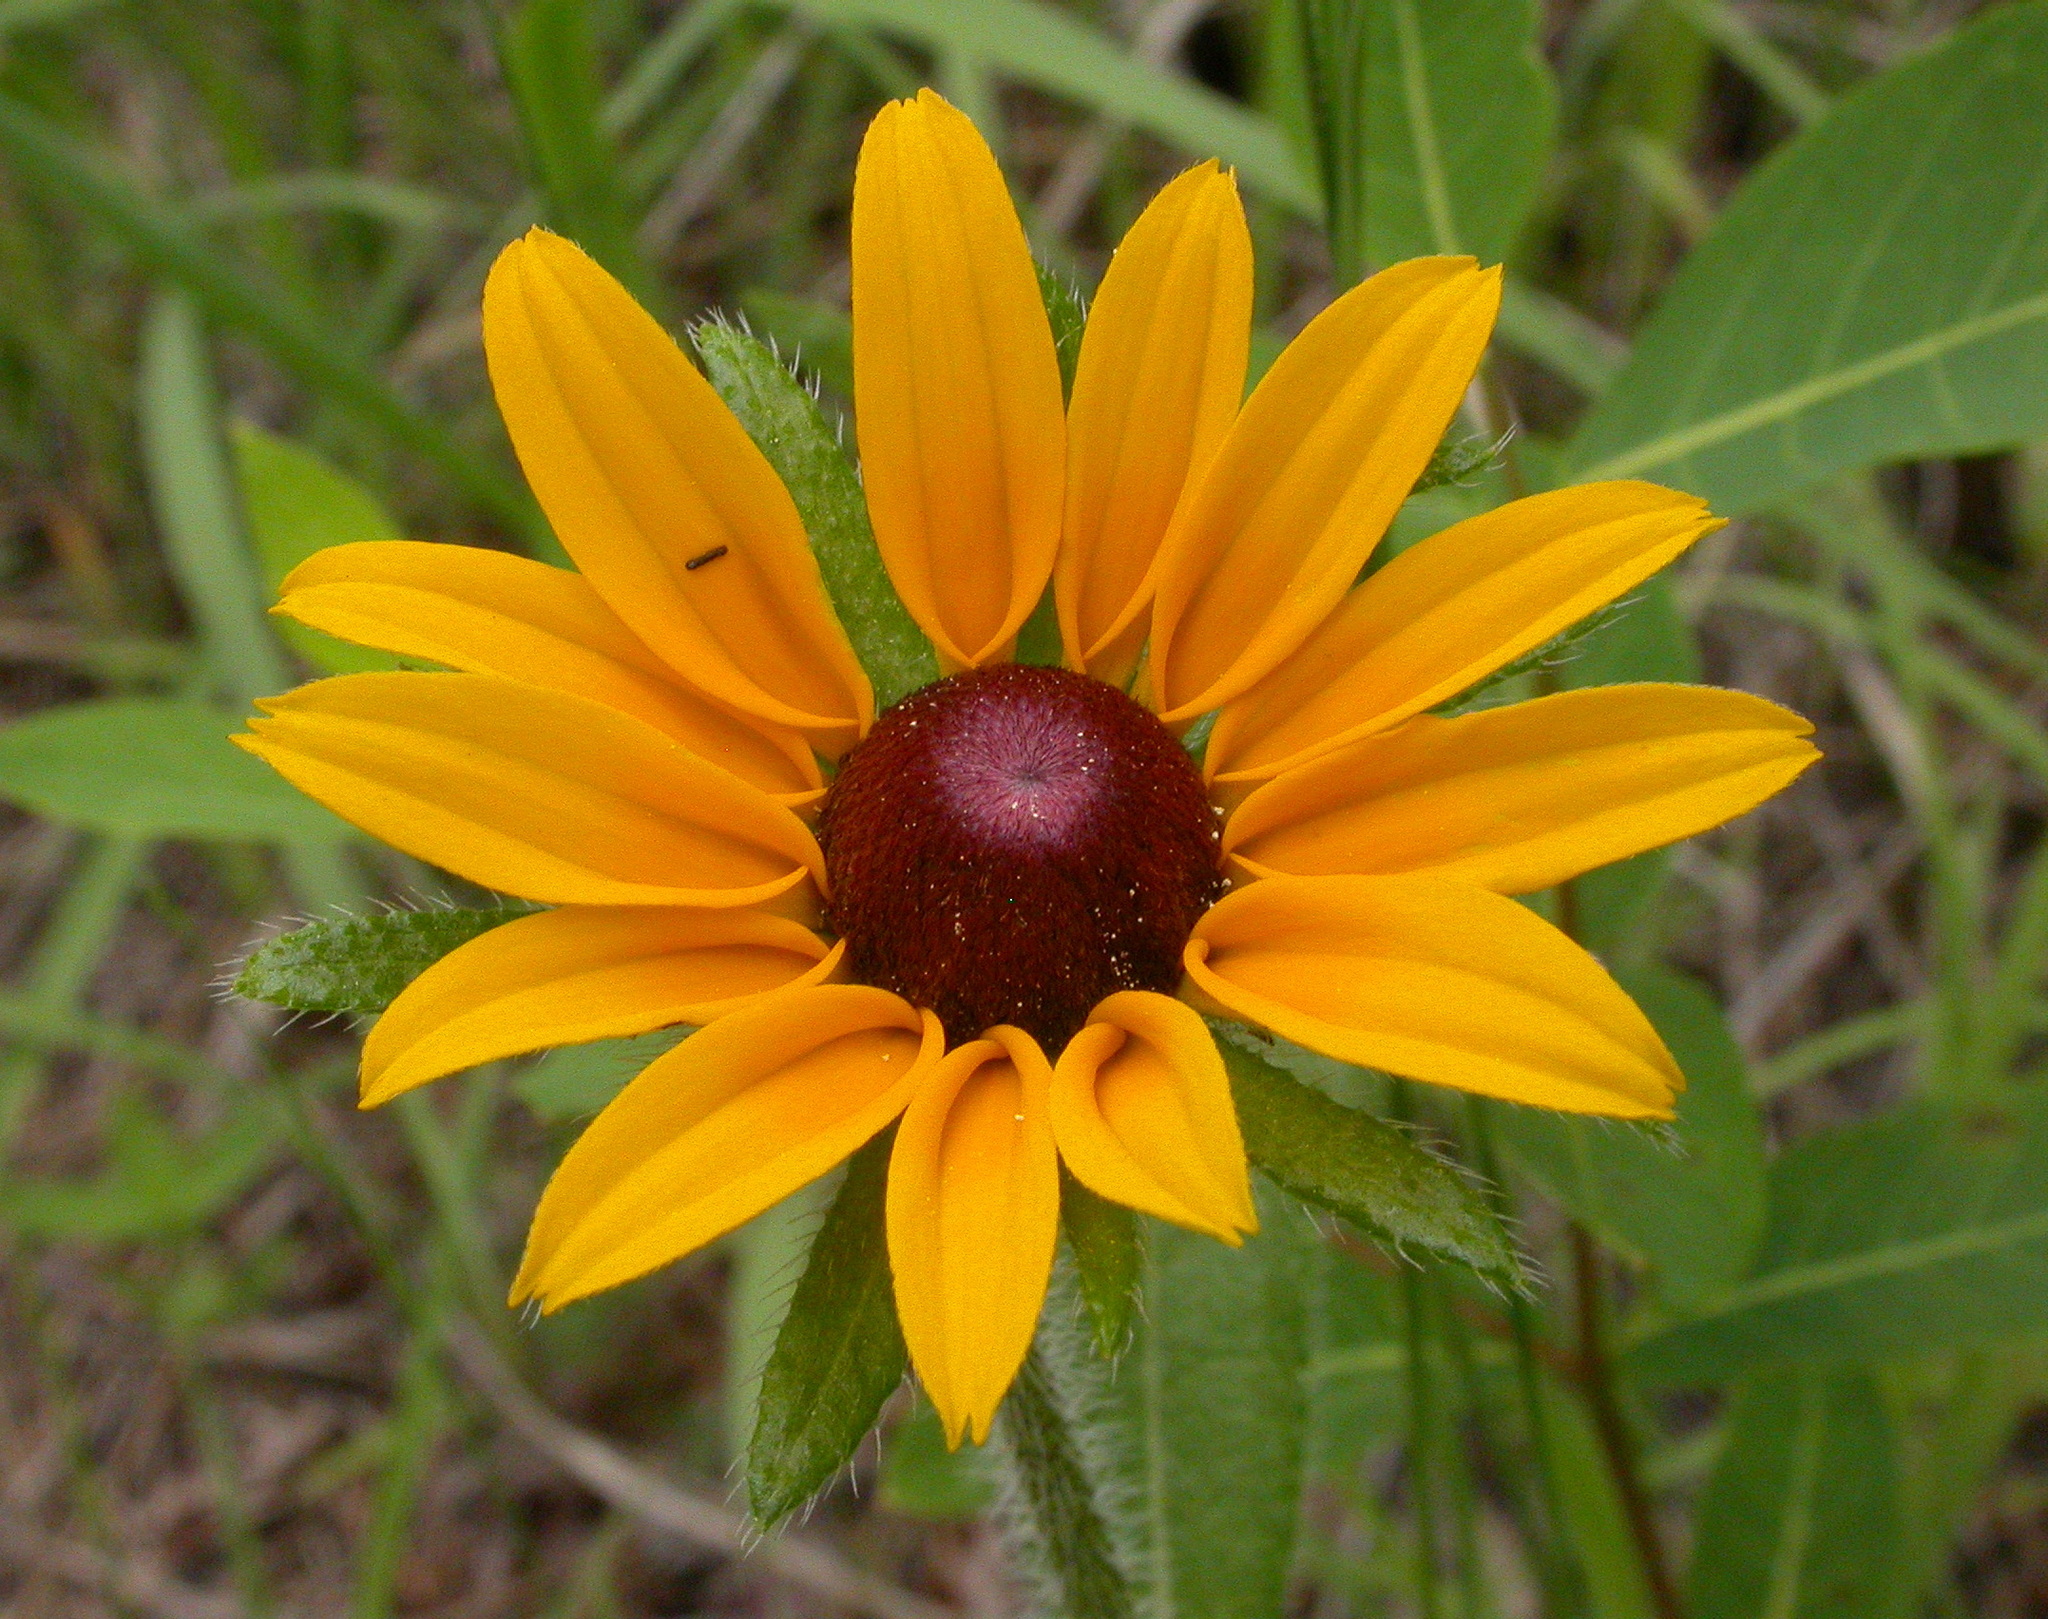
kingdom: Plantae
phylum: Tracheophyta
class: Magnoliopsida
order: Asterales
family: Asteraceae
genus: Rudbeckia
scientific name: Rudbeckia hirta
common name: Black-eyed-susan
